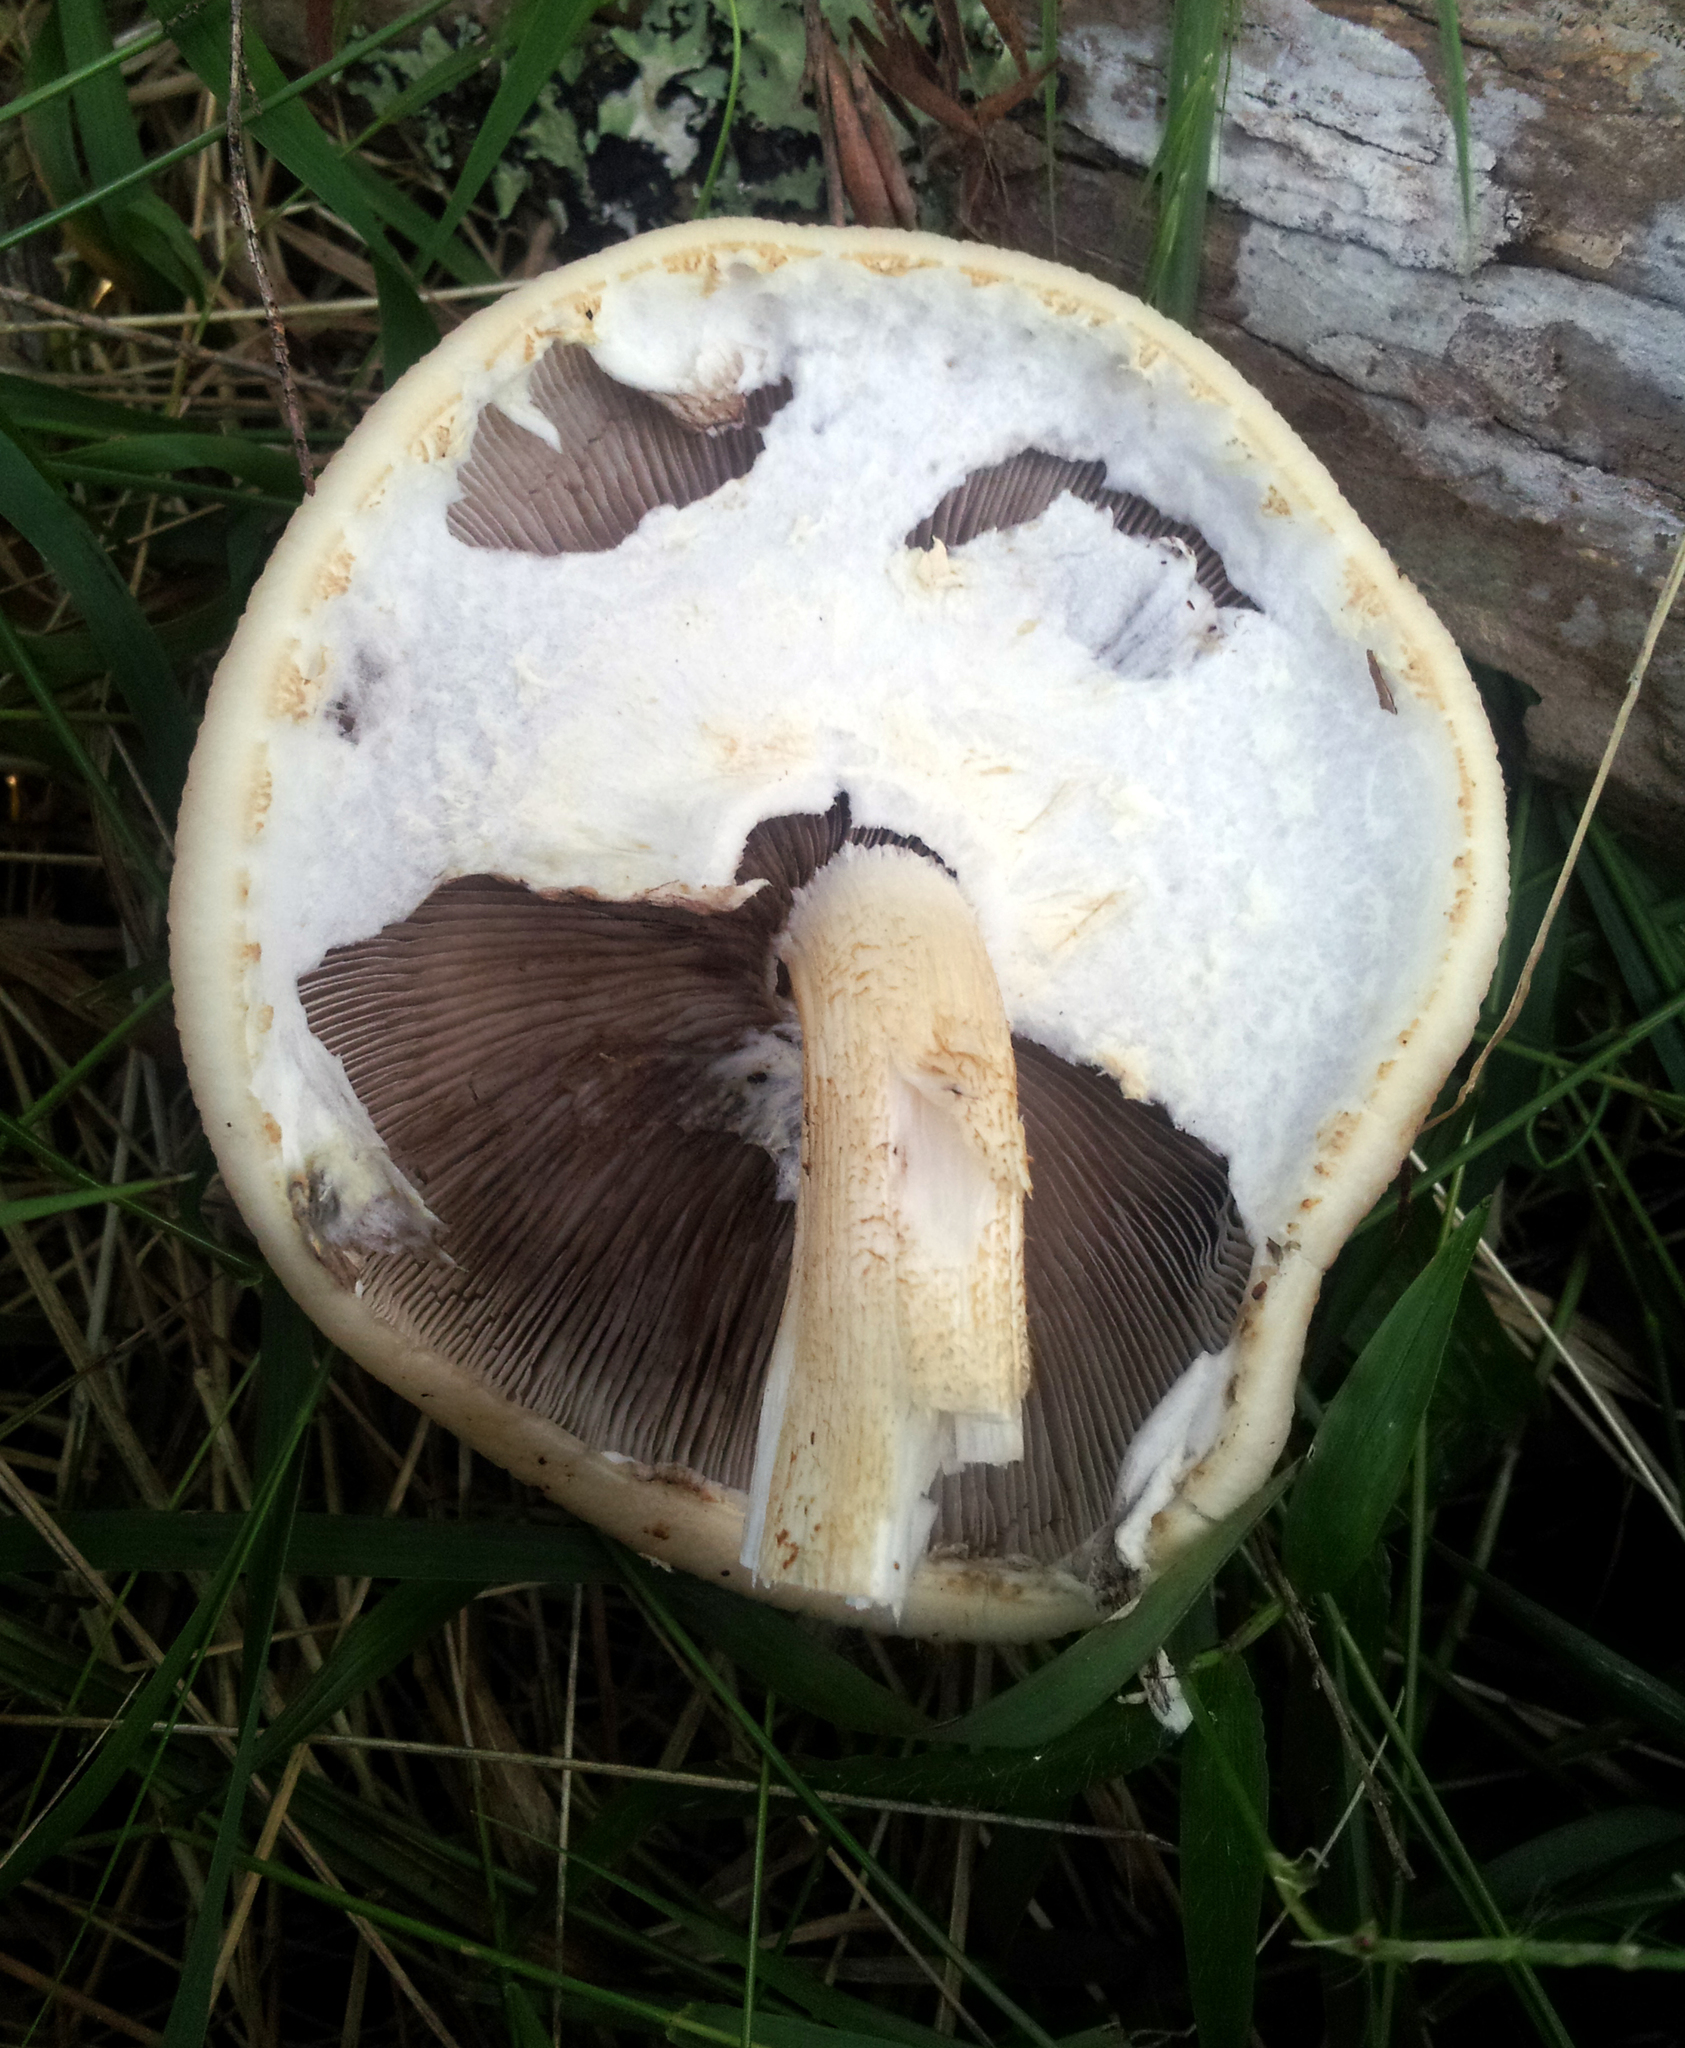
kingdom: Fungi
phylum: Basidiomycota
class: Agaricomycetes
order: Agaricales
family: Tubariaceae
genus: Cyclocybe
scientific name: Cyclocybe parasitica
